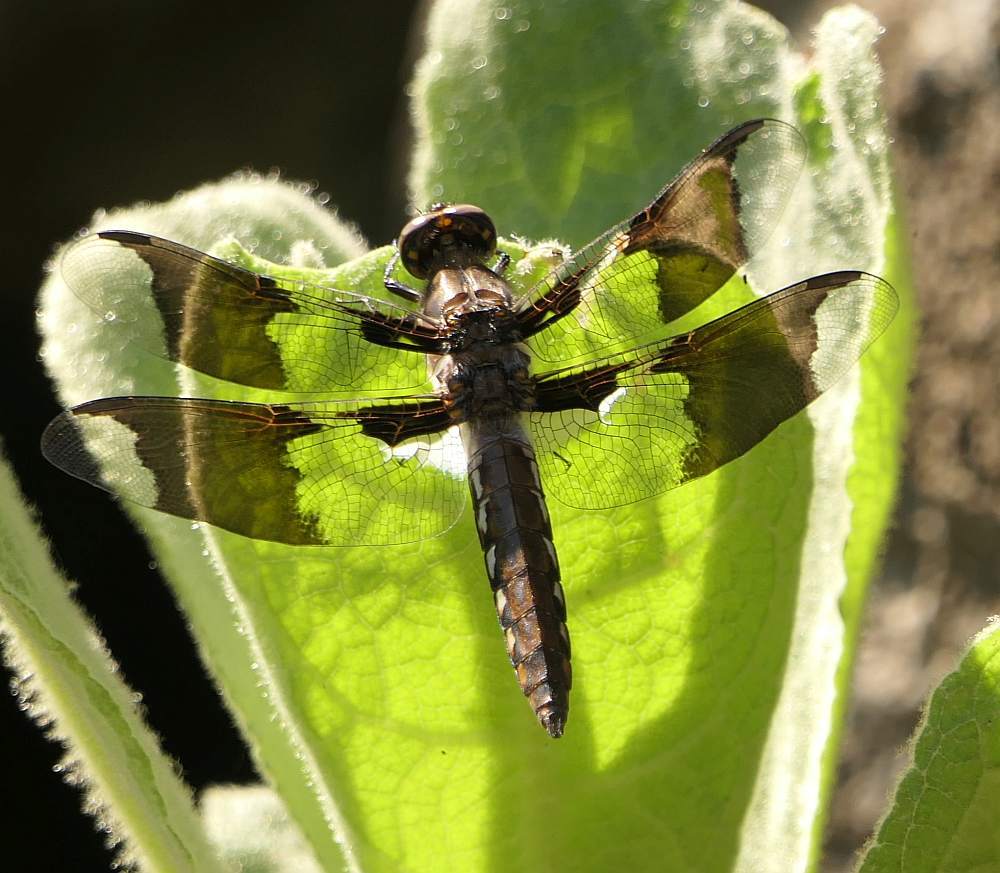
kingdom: Animalia
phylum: Arthropoda
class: Insecta
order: Odonata
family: Libellulidae
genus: Plathemis
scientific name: Plathemis lydia
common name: Common whitetail
